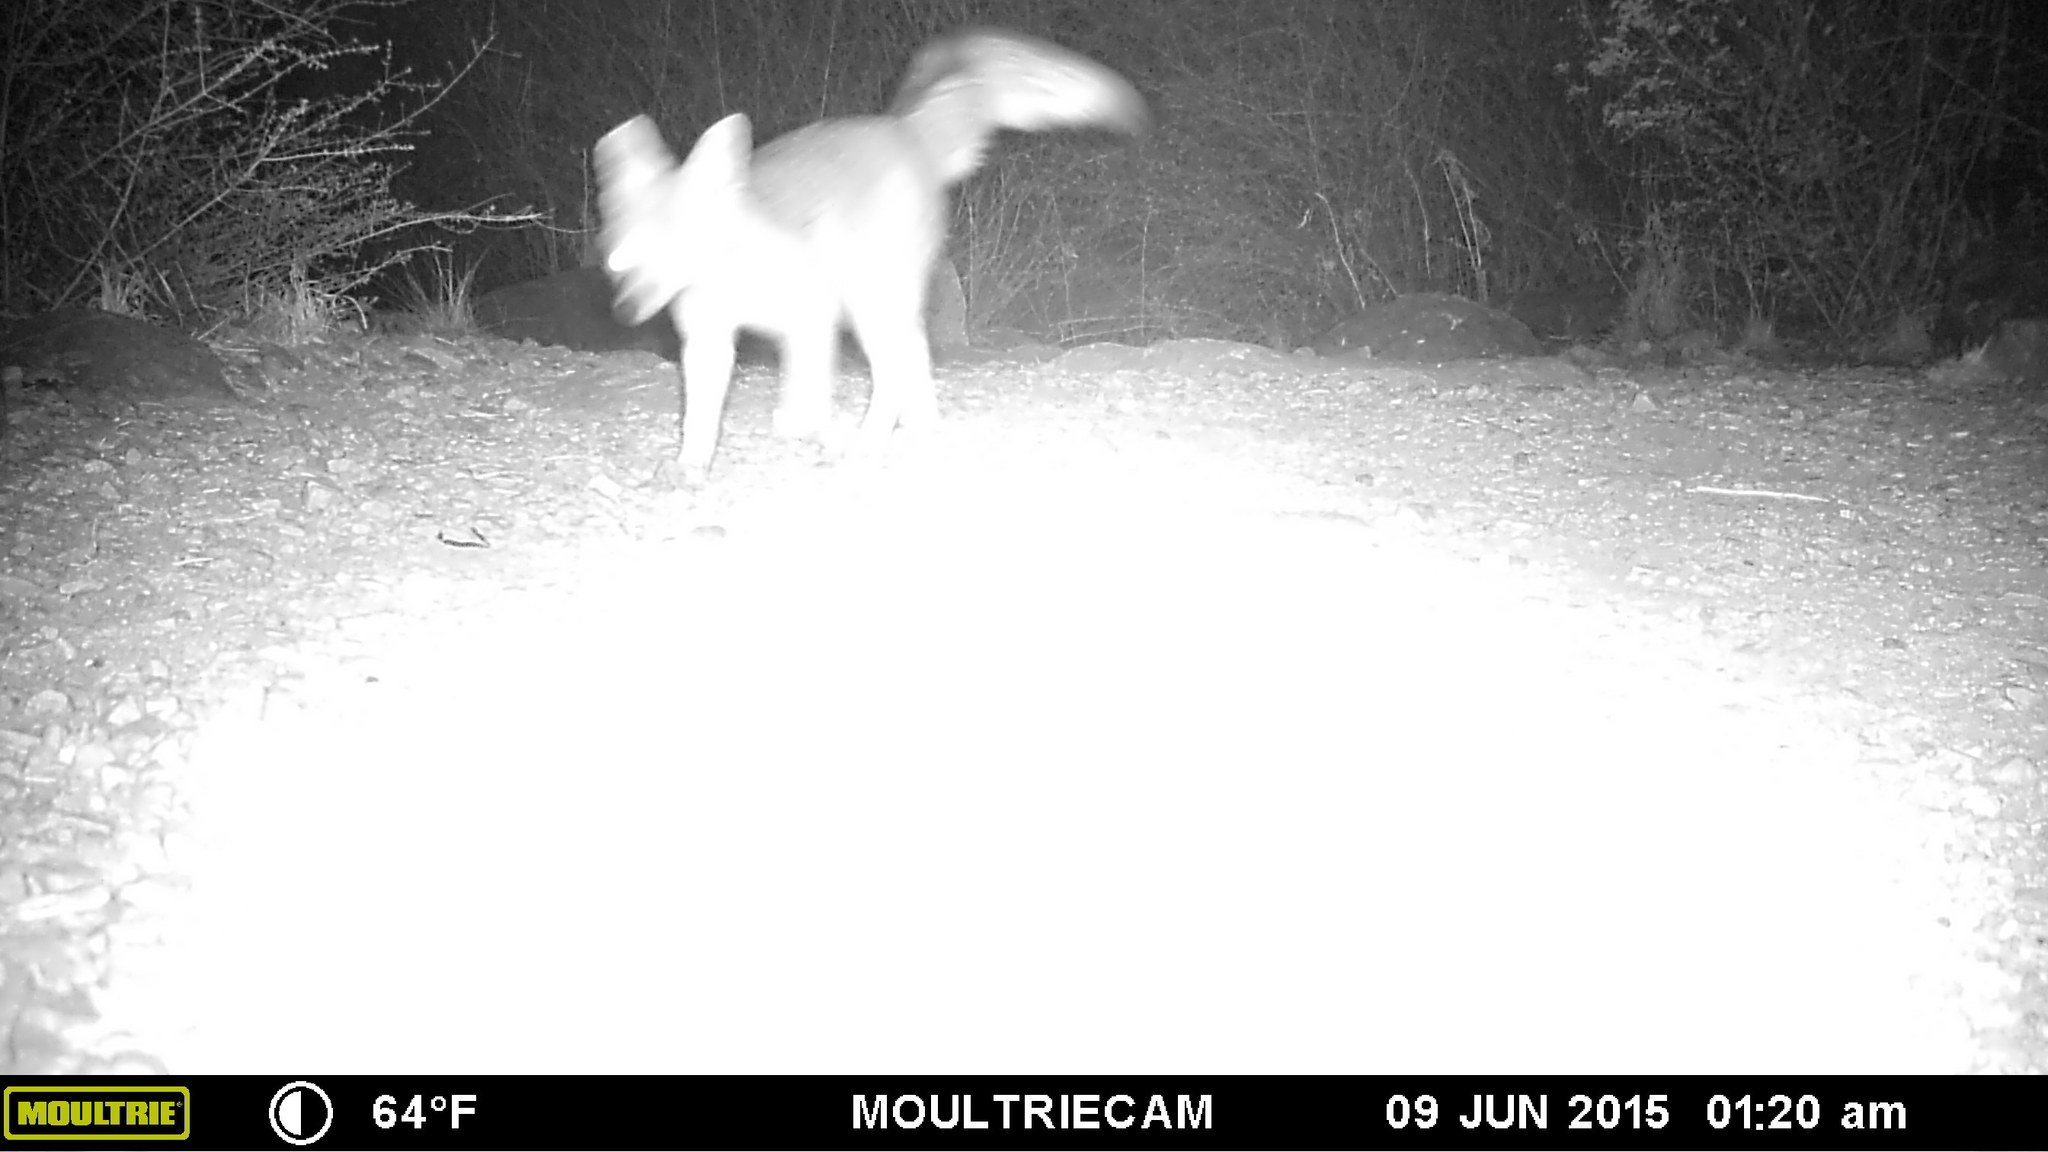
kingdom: Animalia
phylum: Chordata
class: Mammalia
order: Carnivora
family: Canidae
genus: Urocyon
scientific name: Urocyon cinereoargenteus
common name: Gray fox
